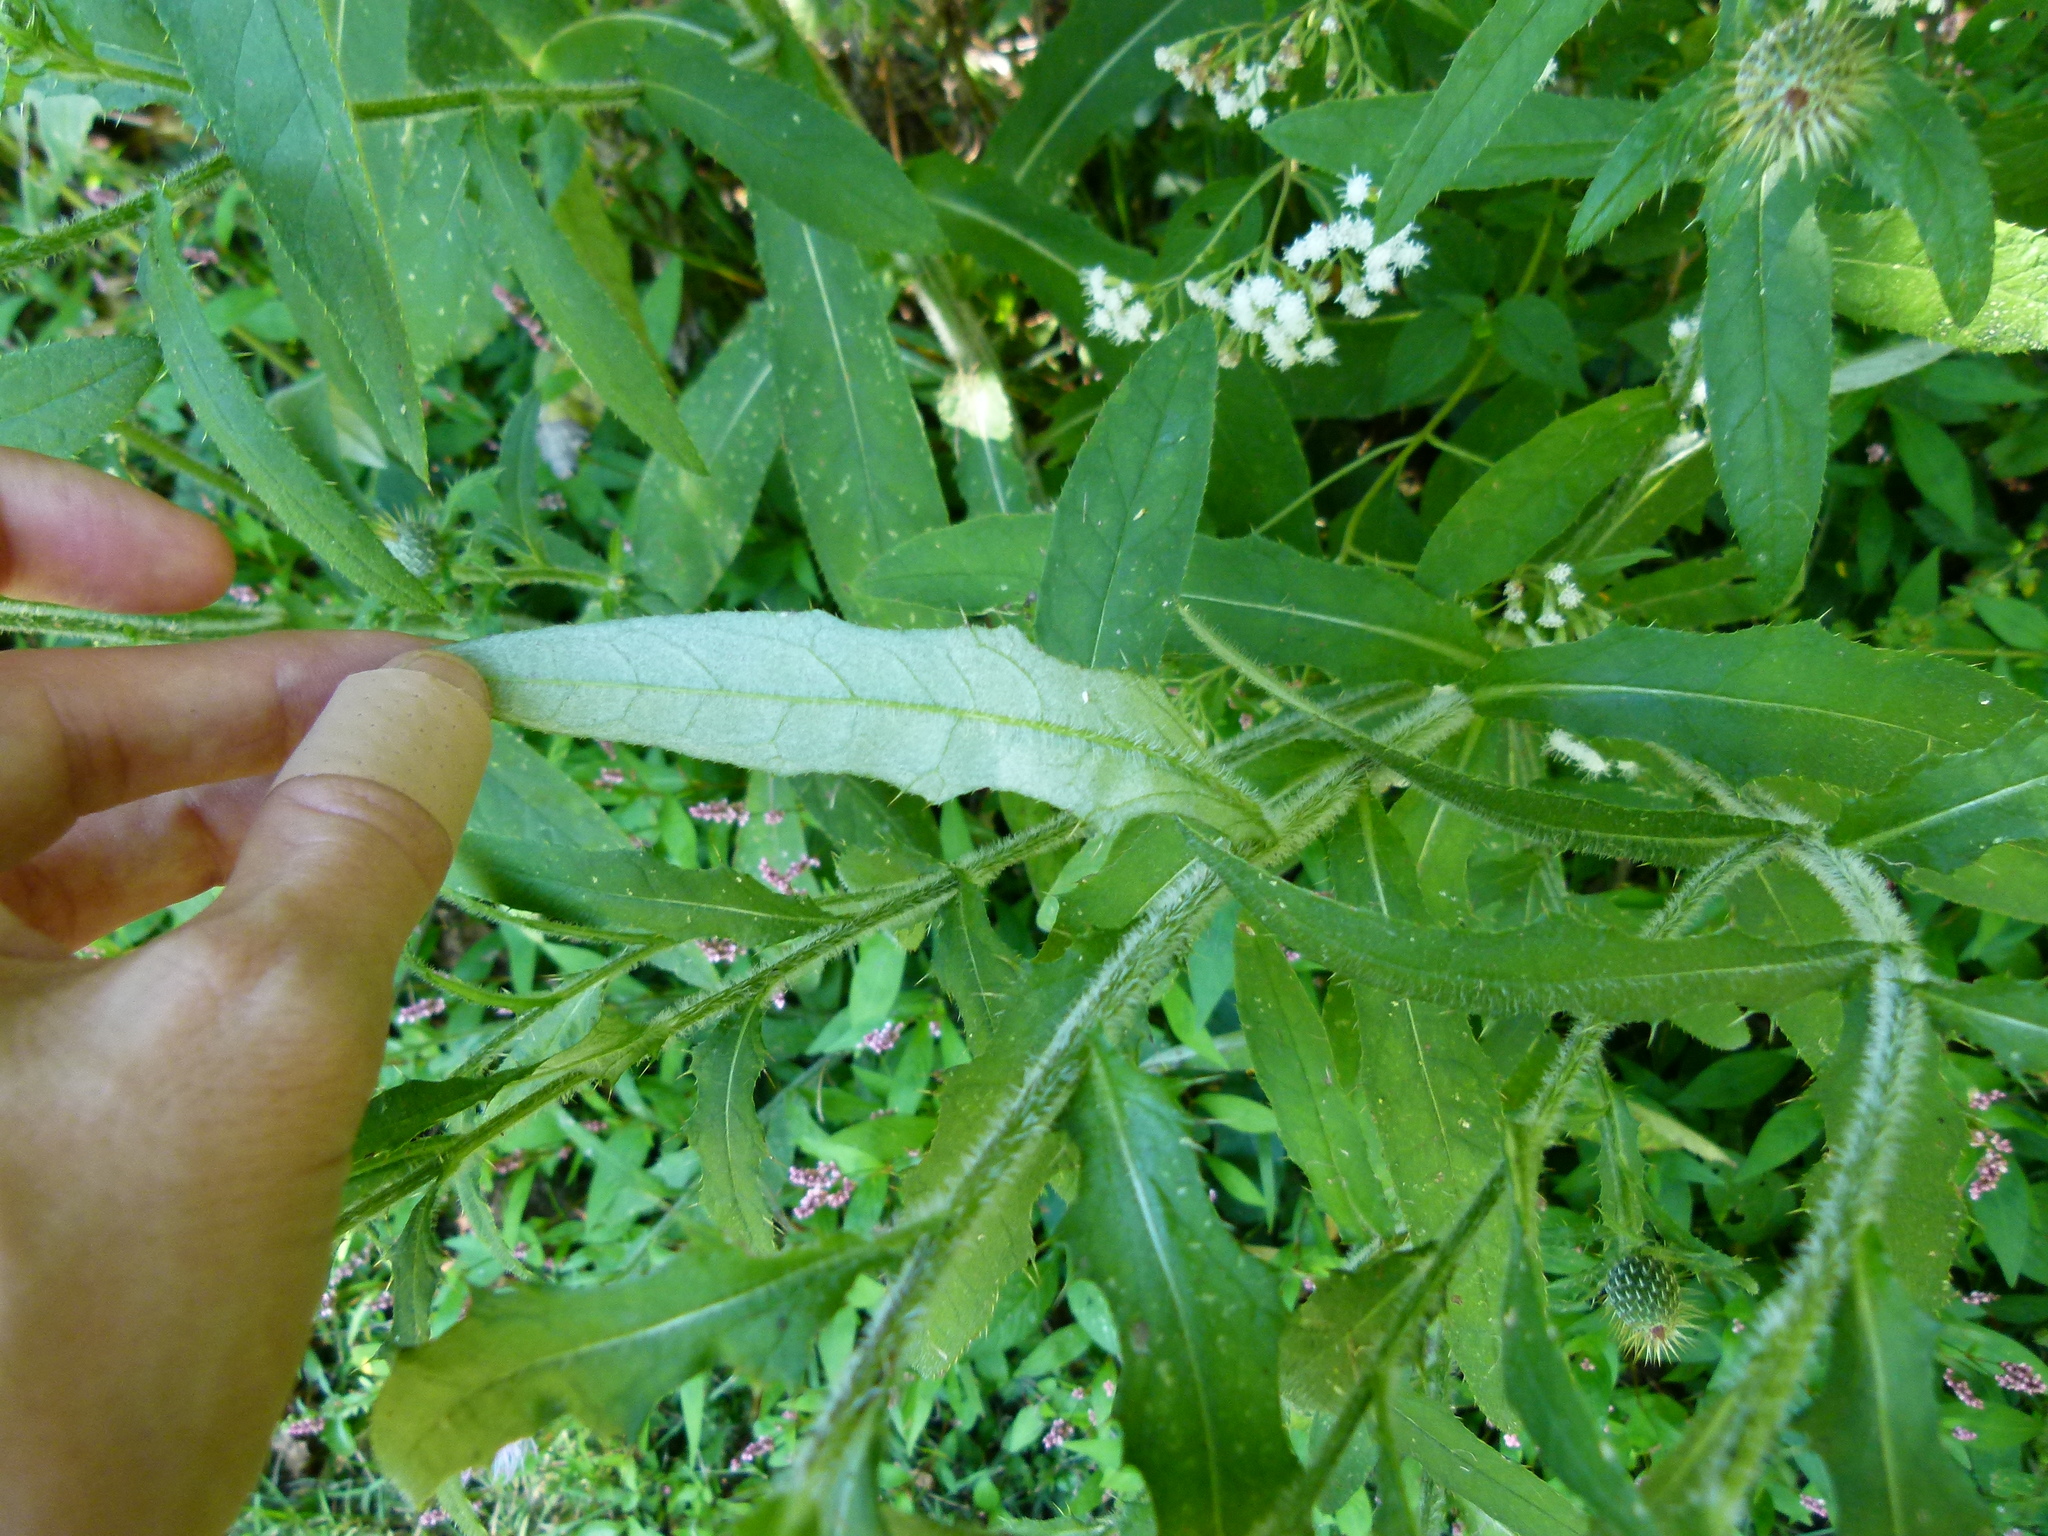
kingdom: Plantae
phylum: Tracheophyta
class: Magnoliopsida
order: Asterales
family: Asteraceae
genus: Cirsium
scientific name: Cirsium altissimum
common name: Roadside thistle
